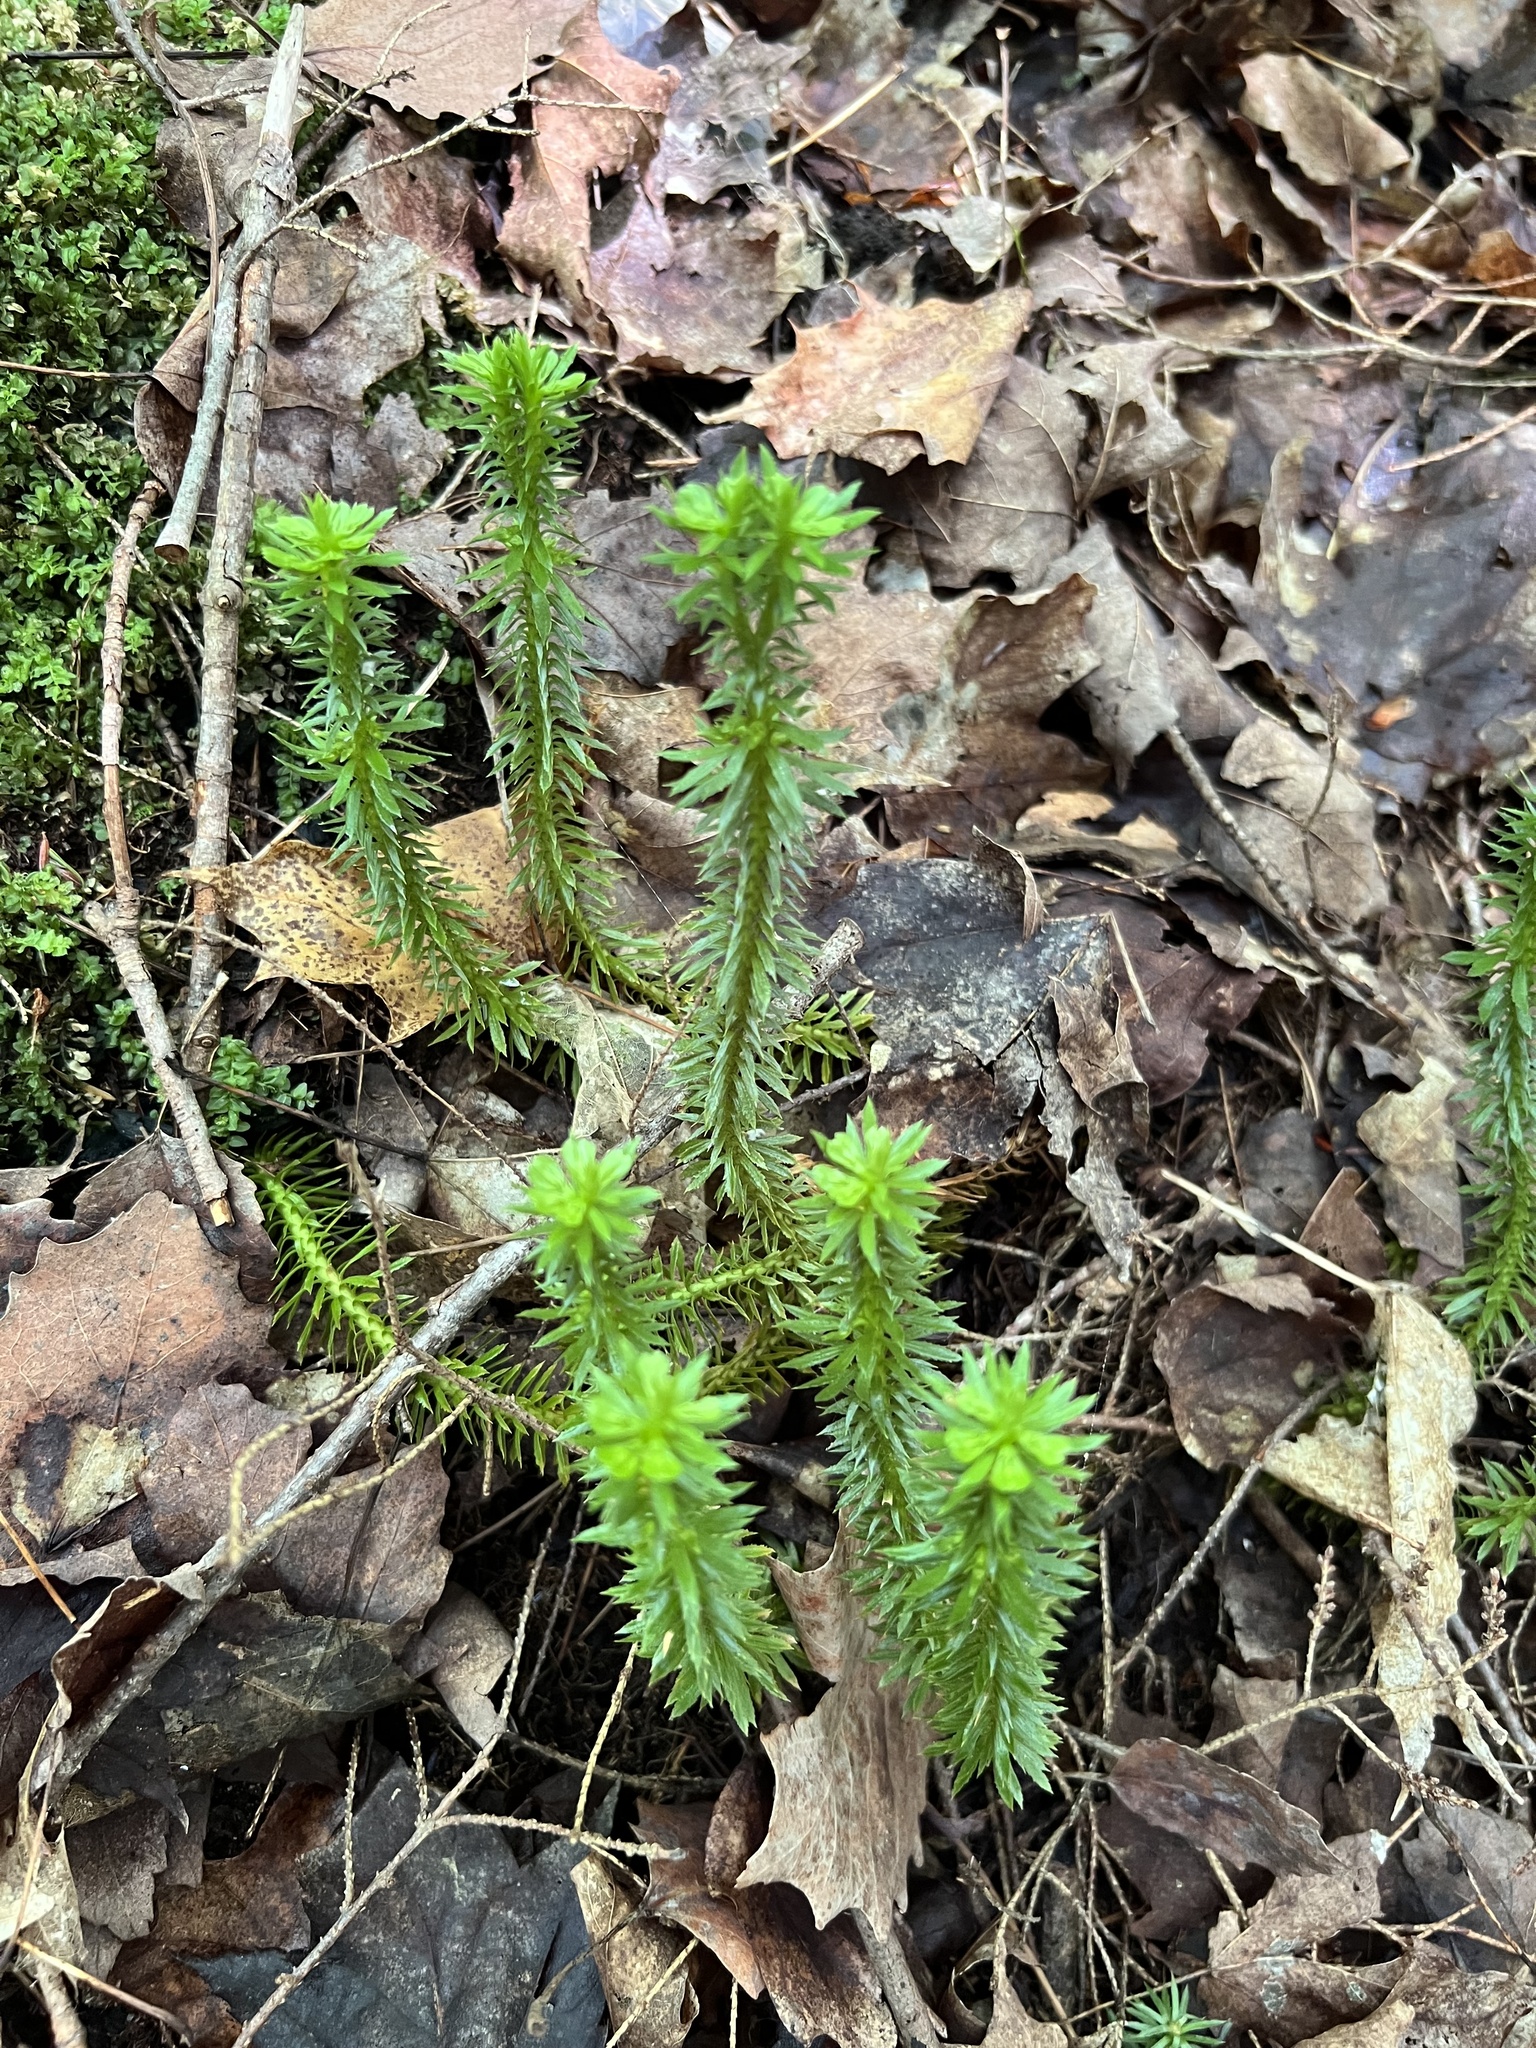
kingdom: Plantae
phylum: Tracheophyta
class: Lycopodiopsida
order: Lycopodiales
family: Lycopodiaceae
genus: Huperzia
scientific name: Huperzia lucidula
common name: Shining clubmoss
